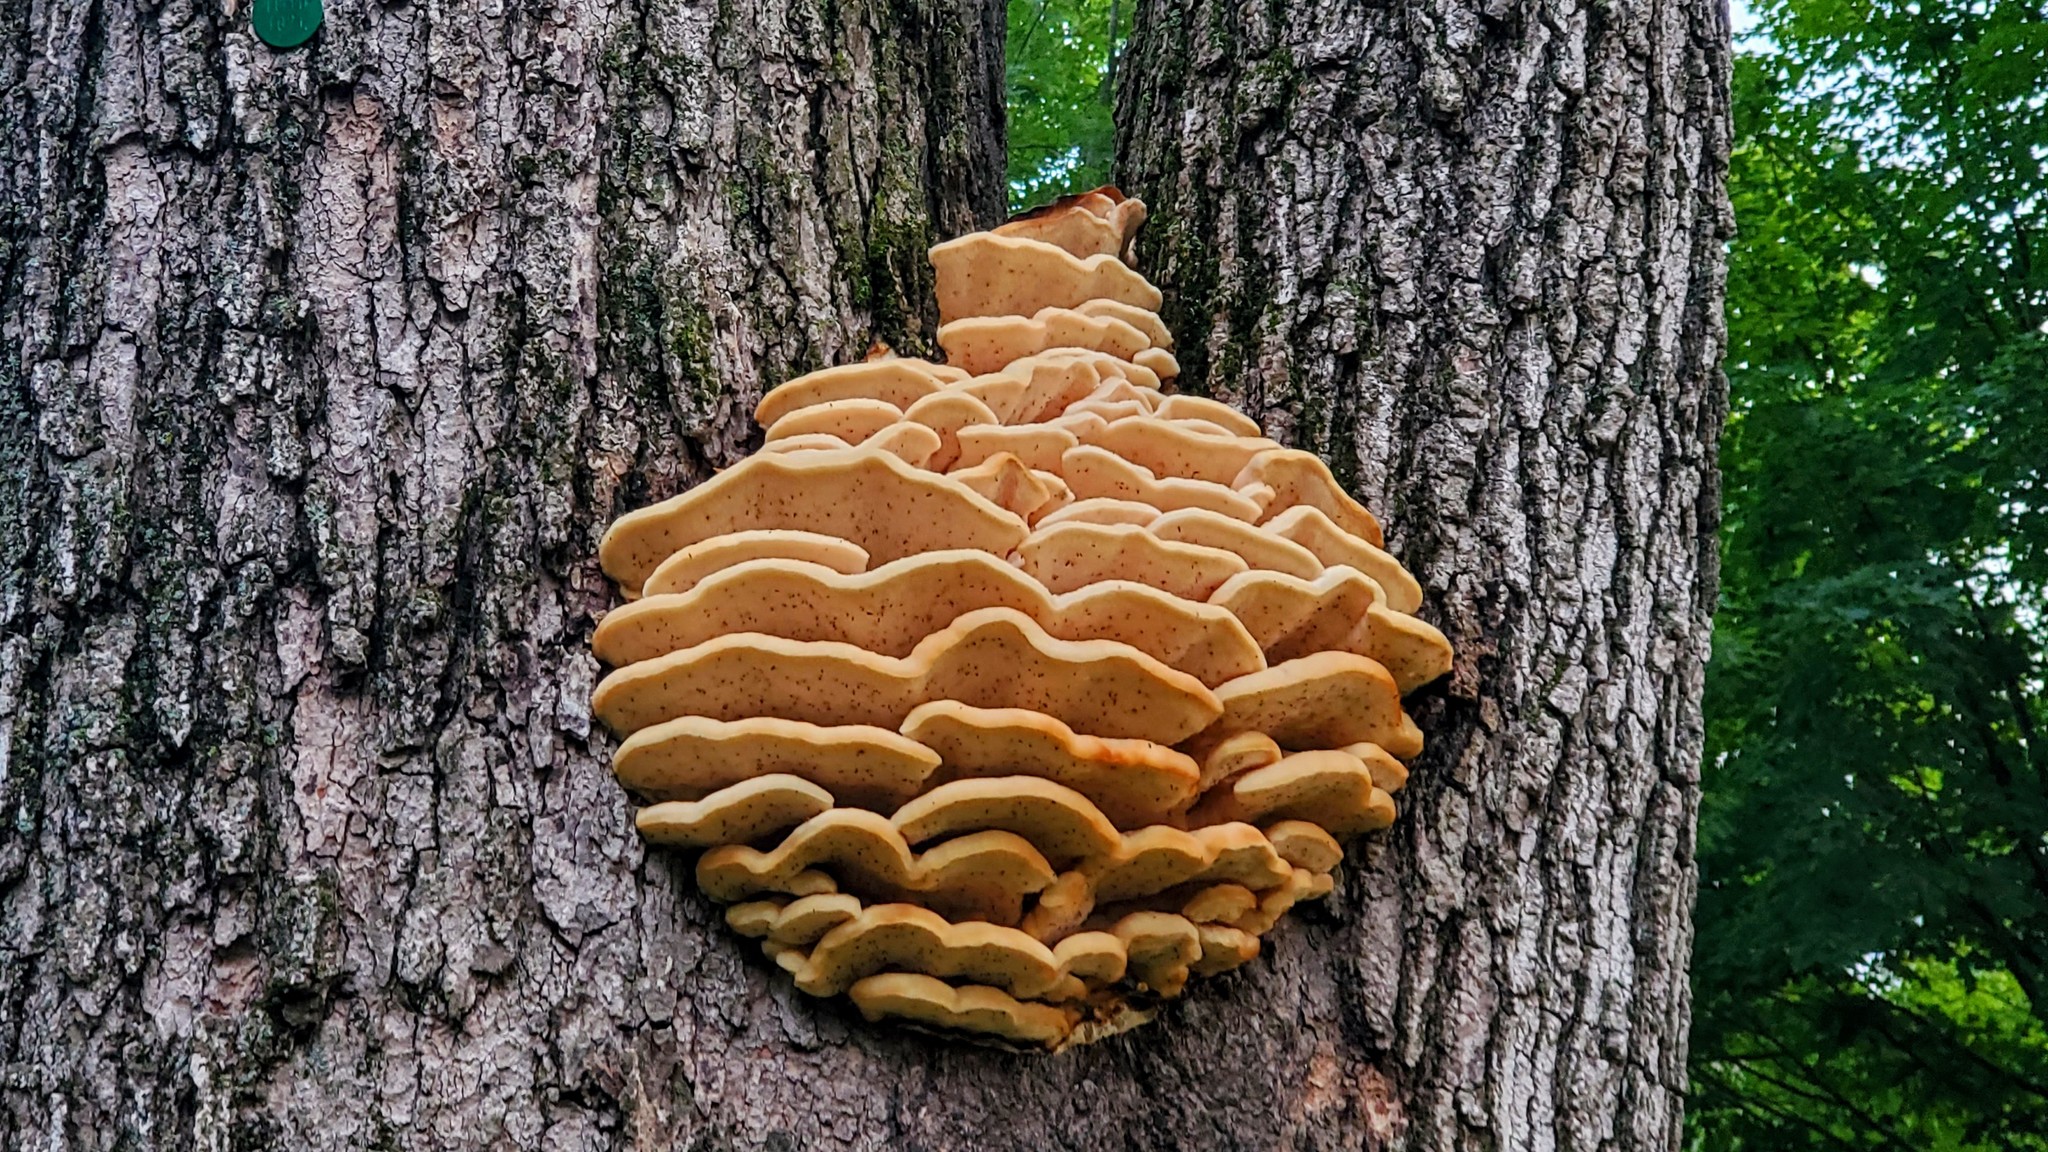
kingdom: Fungi
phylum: Basidiomycota
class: Agaricomycetes
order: Polyporales
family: Meruliaceae
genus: Climacodon
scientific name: Climacodon septentrionalis
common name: Northern tooth
